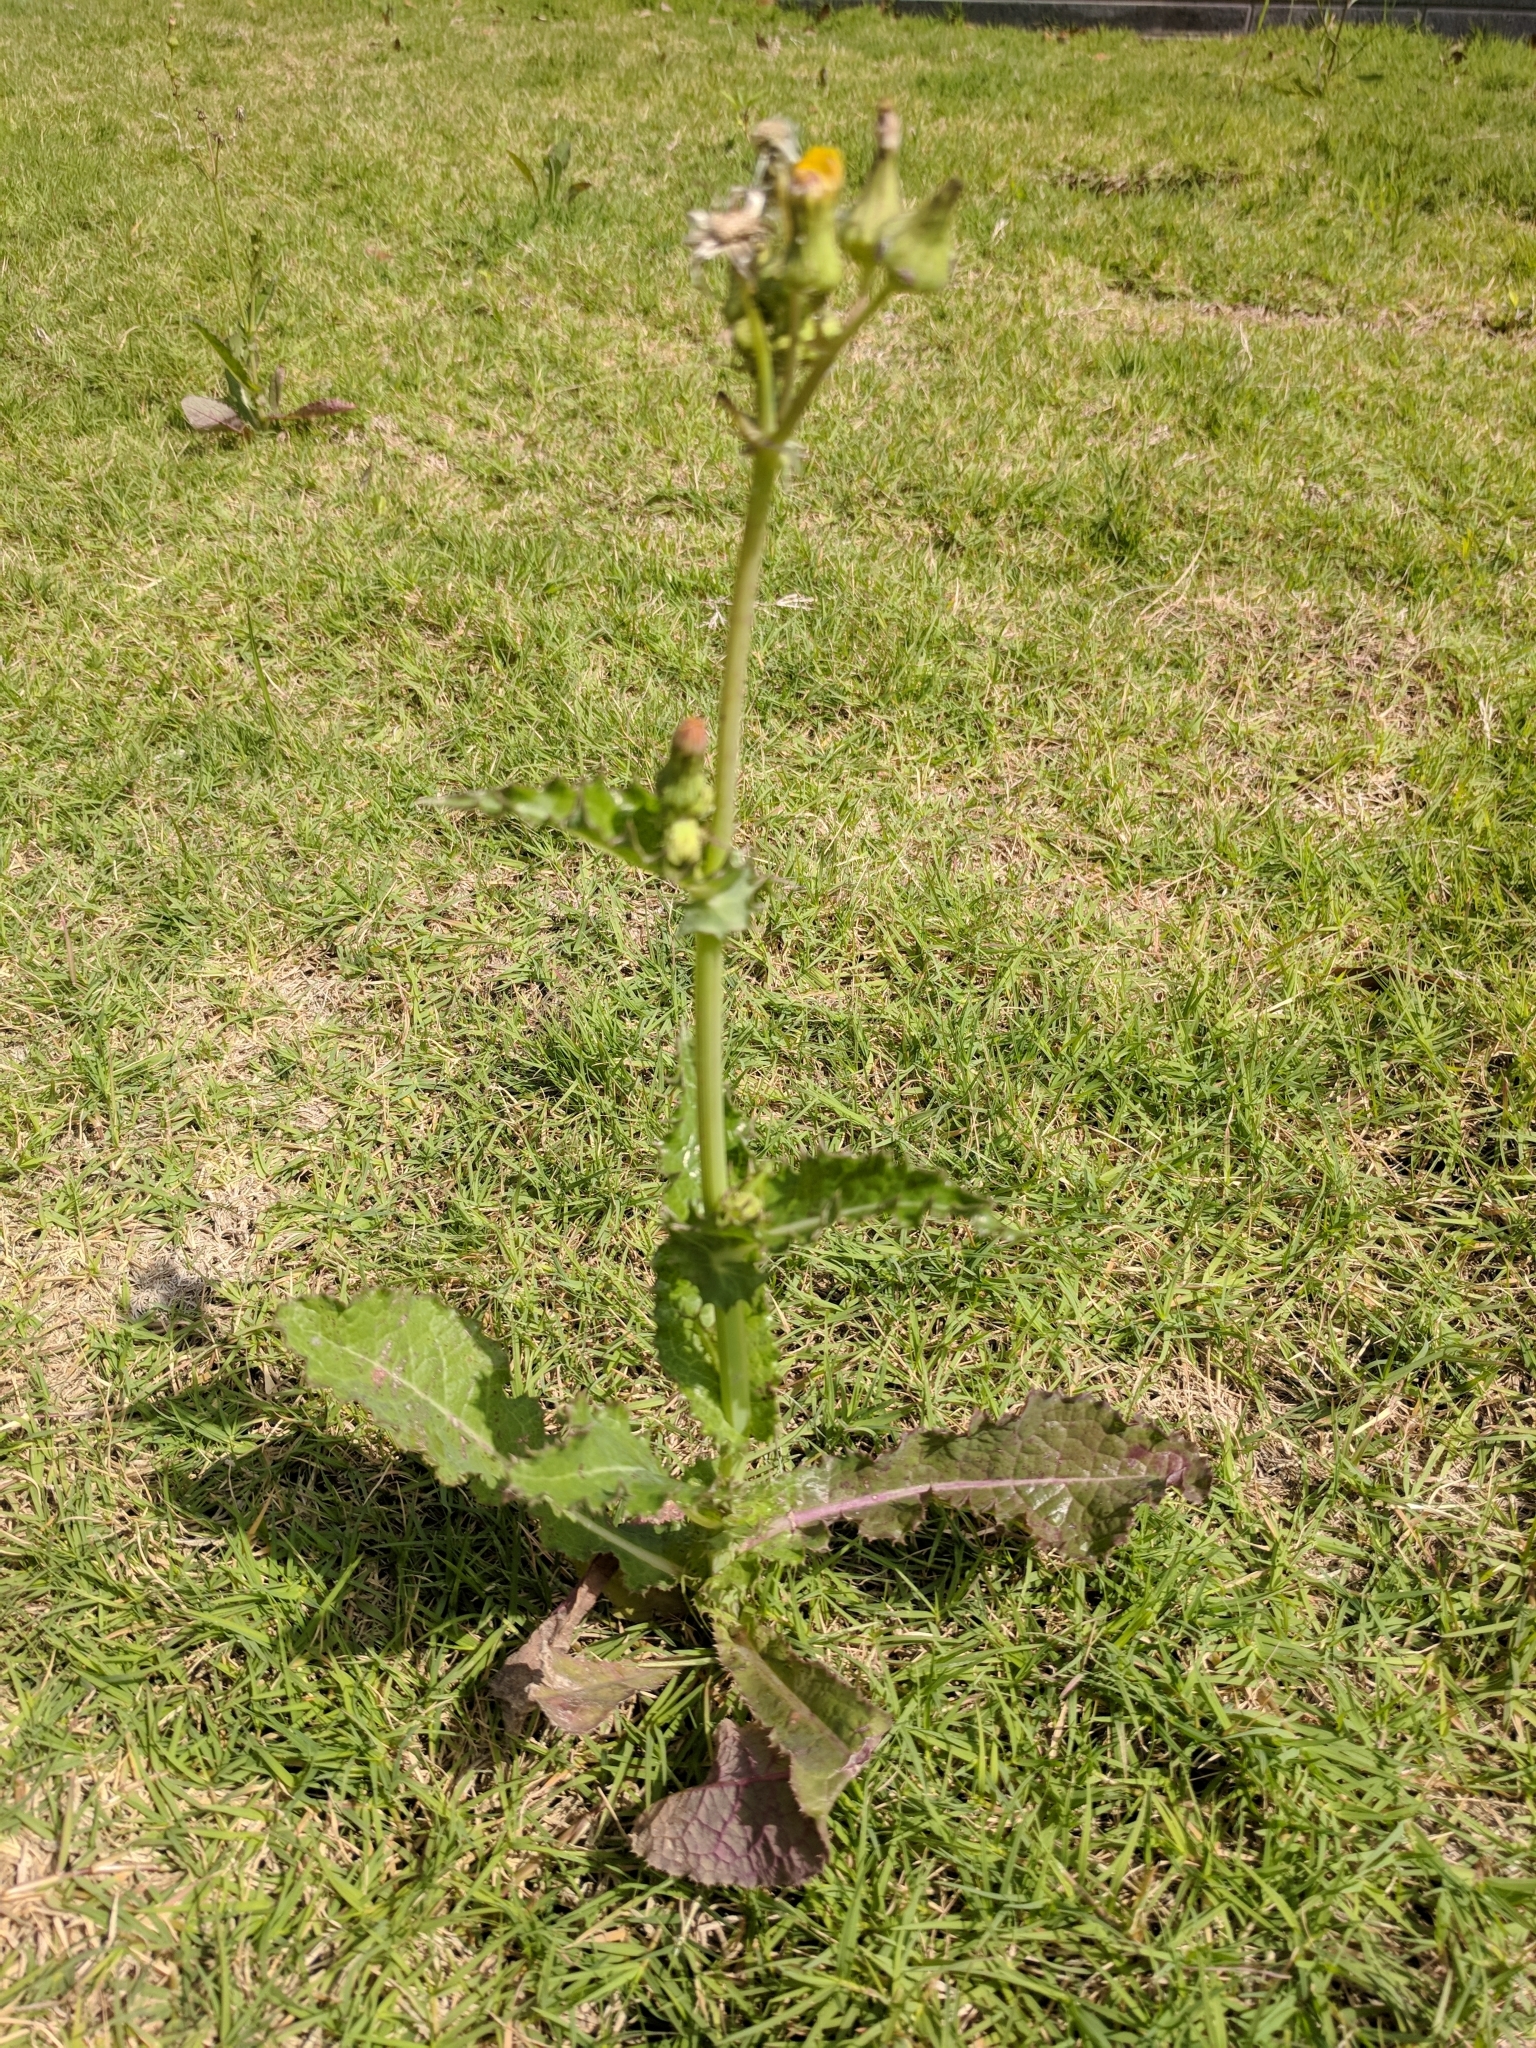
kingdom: Plantae
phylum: Tracheophyta
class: Magnoliopsida
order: Asterales
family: Asteraceae
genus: Sonchus
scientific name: Sonchus asper
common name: Prickly sow-thistle
